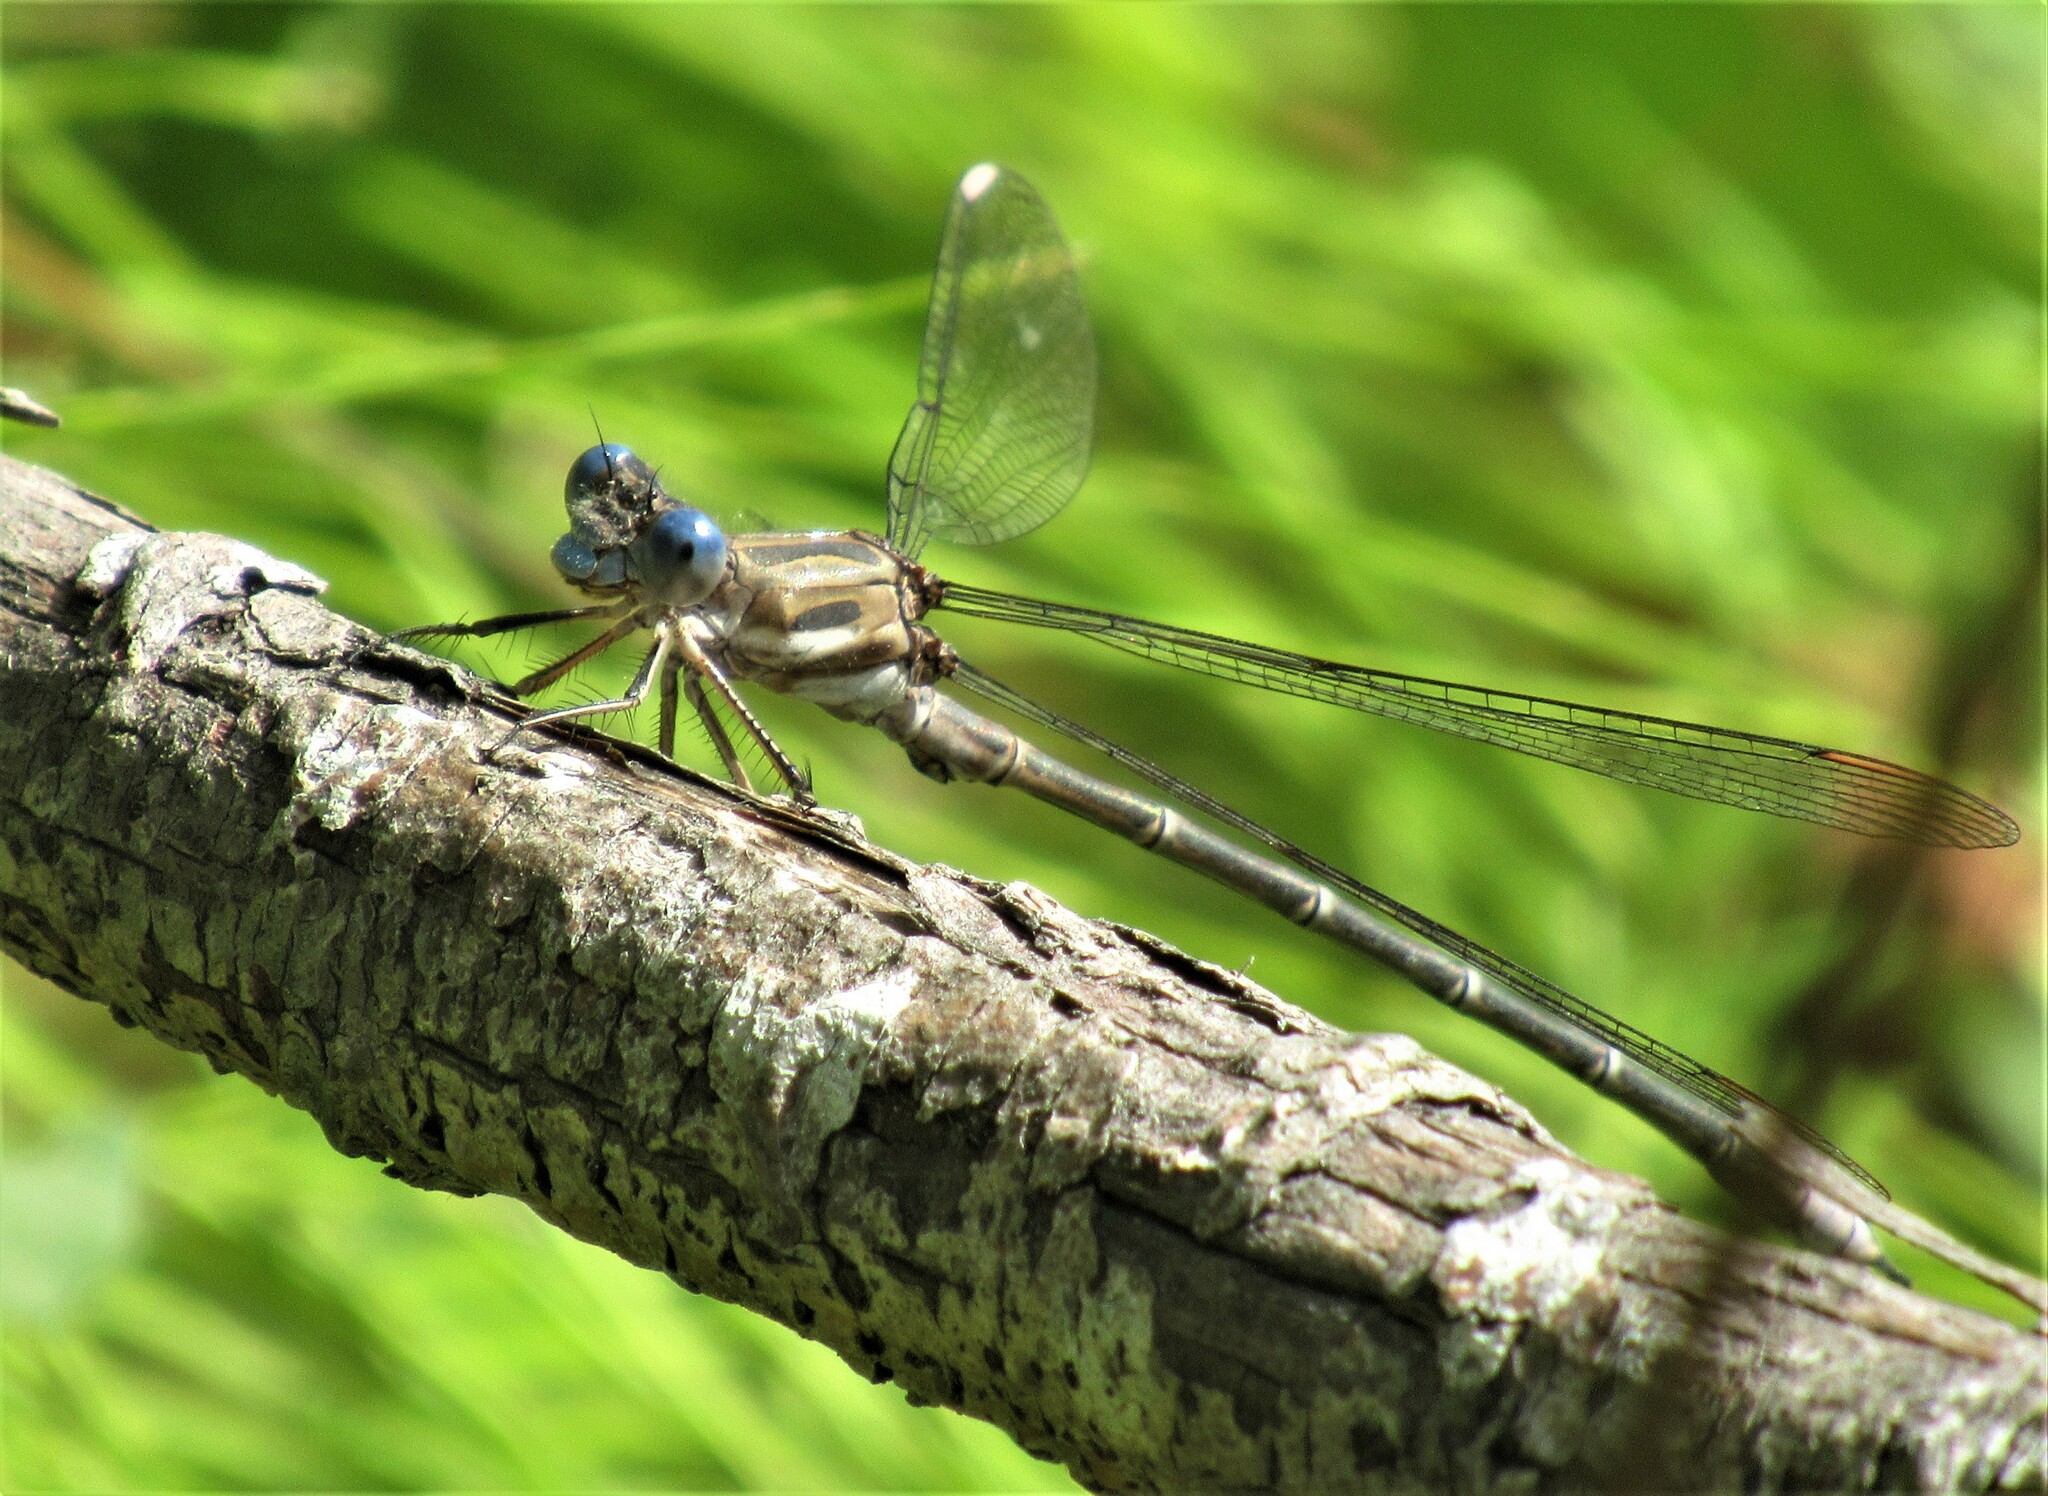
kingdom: Animalia
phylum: Arthropoda
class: Insecta
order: Odonata
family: Lestidae
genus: Archilestes
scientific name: Archilestes californicus
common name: California spreadwing
